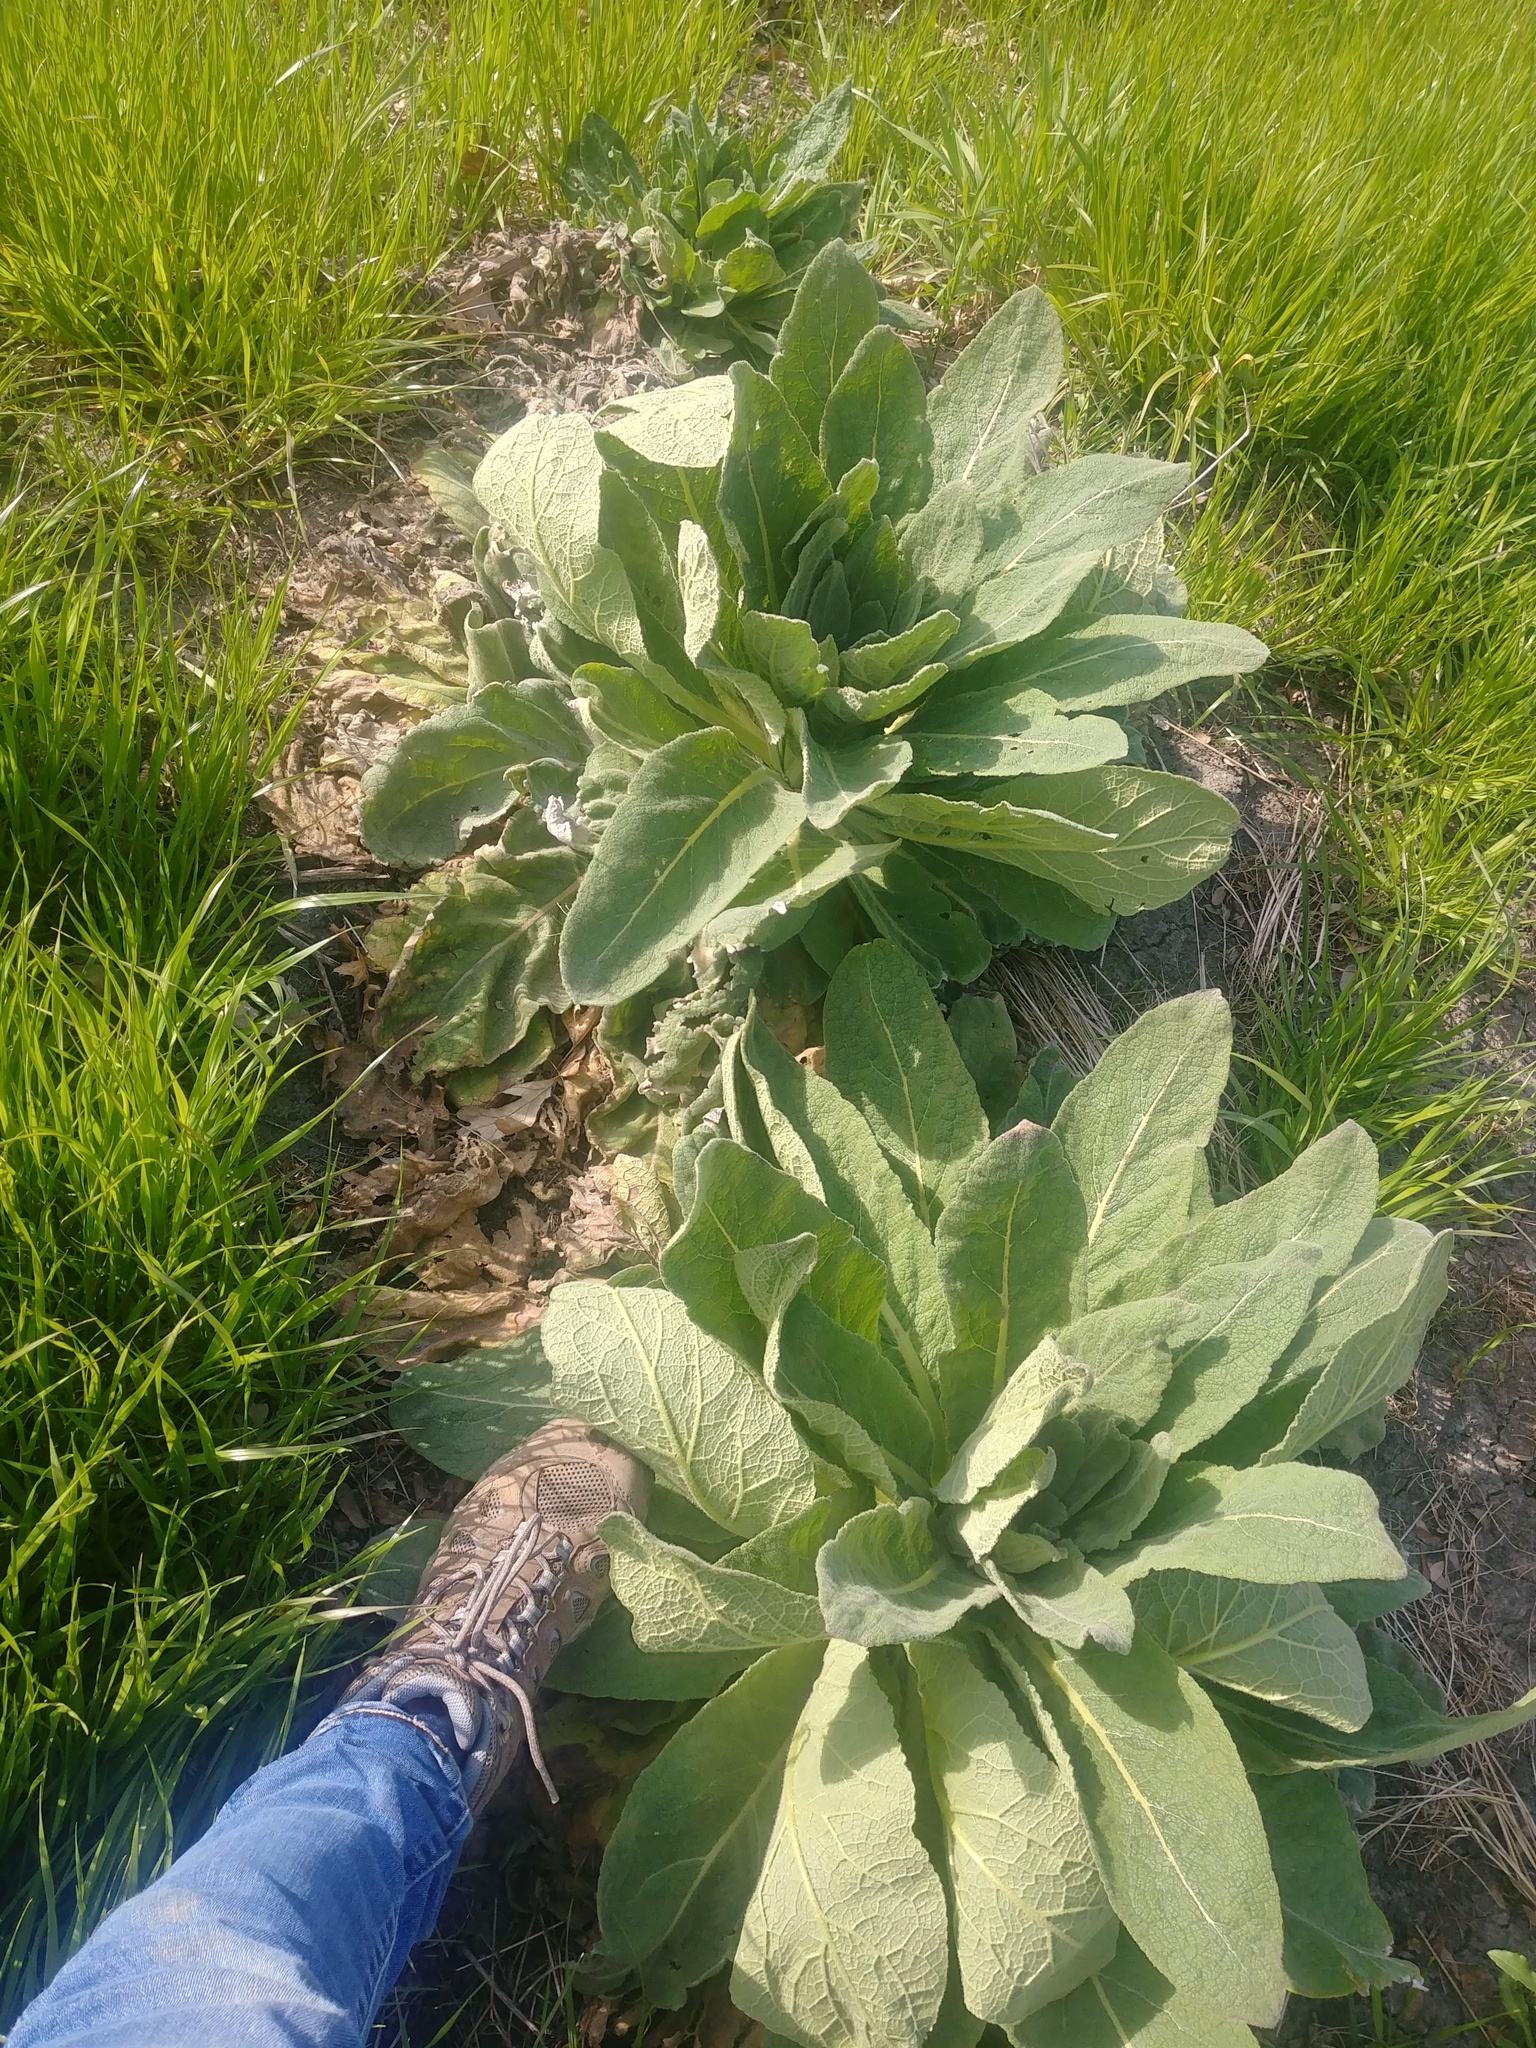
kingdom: Plantae
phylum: Tracheophyta
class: Magnoliopsida
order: Lamiales
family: Scrophulariaceae
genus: Verbascum
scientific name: Verbascum thapsus
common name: Common mullein
